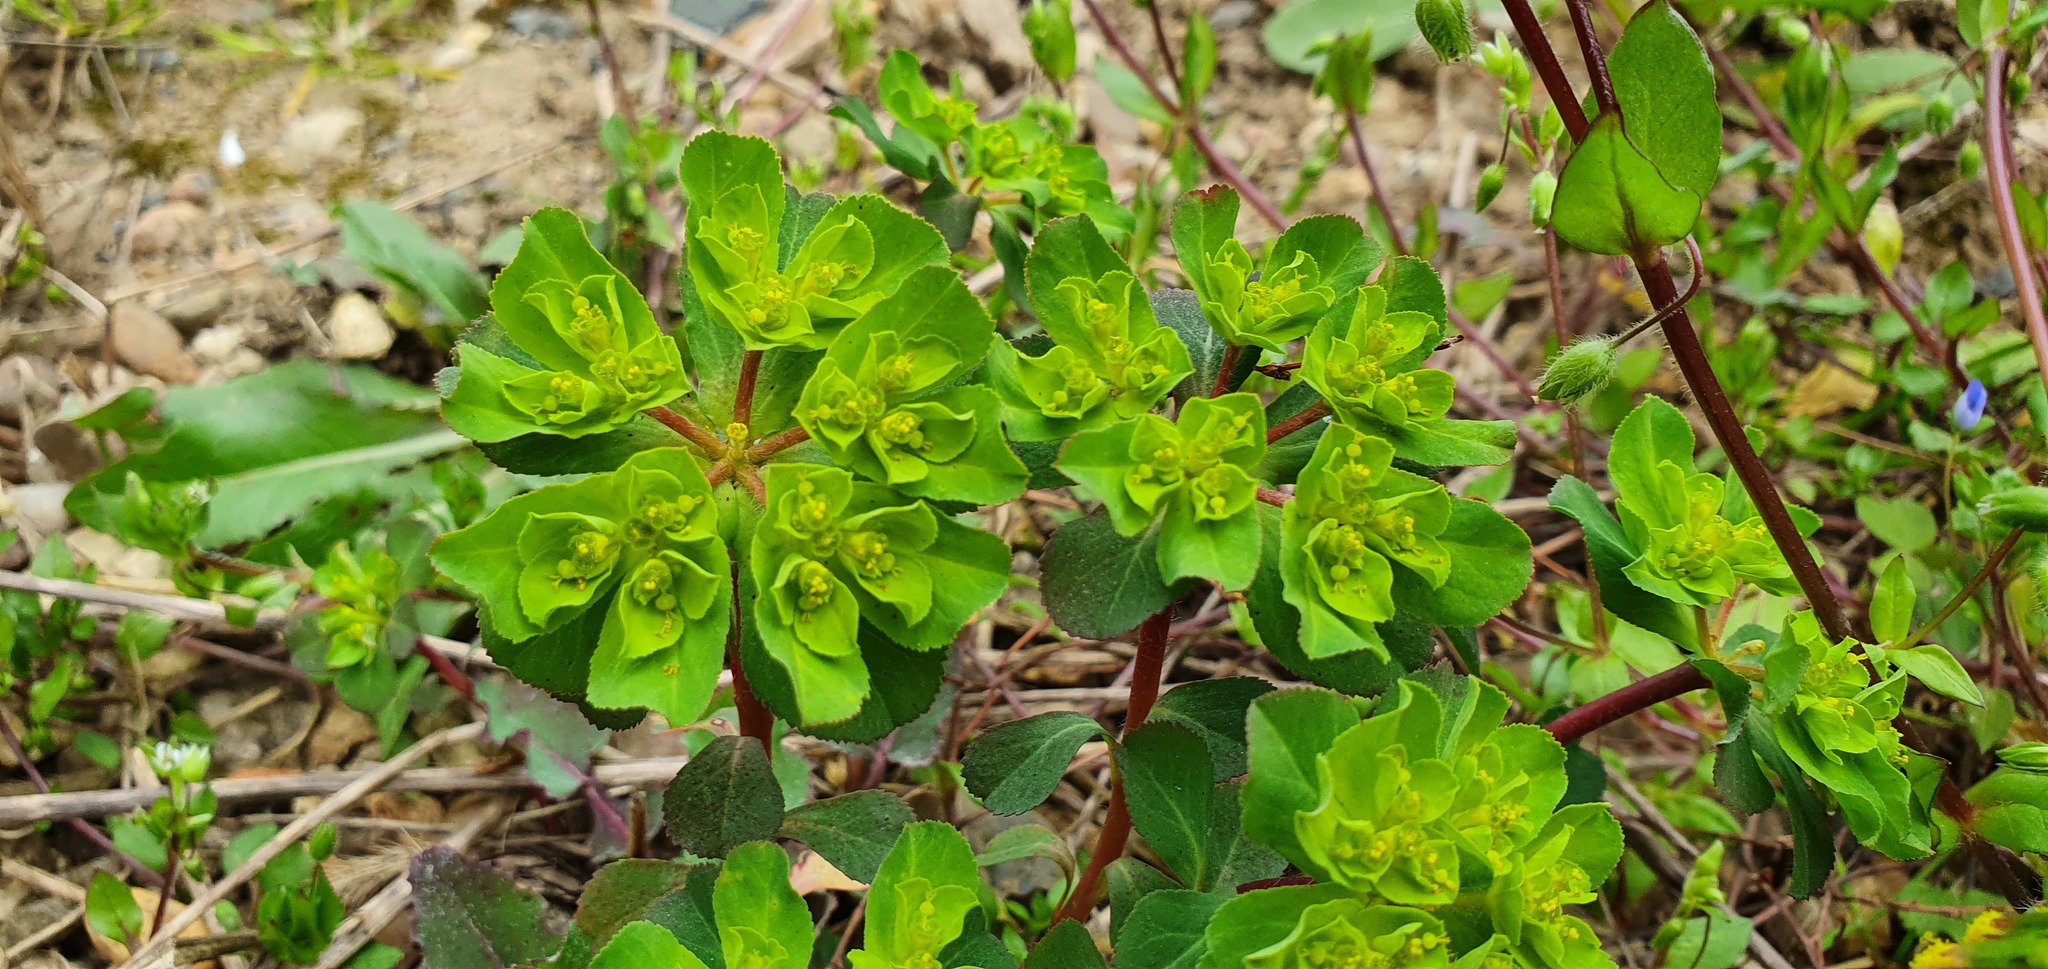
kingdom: Plantae
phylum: Tracheophyta
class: Magnoliopsida
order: Malpighiales
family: Euphorbiaceae
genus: Euphorbia
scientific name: Euphorbia helioscopia
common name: Sun spurge
